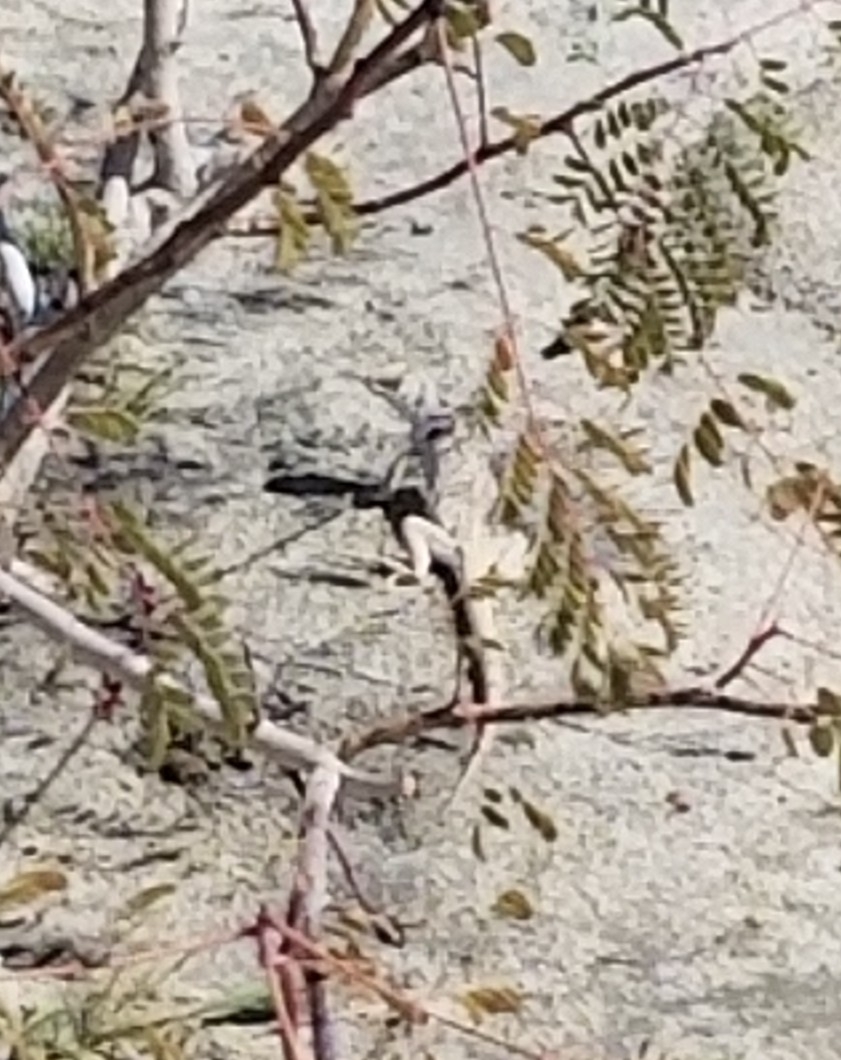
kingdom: Animalia
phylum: Chordata
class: Squamata
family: Iguanidae
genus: Dipsosaurus
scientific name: Dipsosaurus dorsalis
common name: Desert iguana
